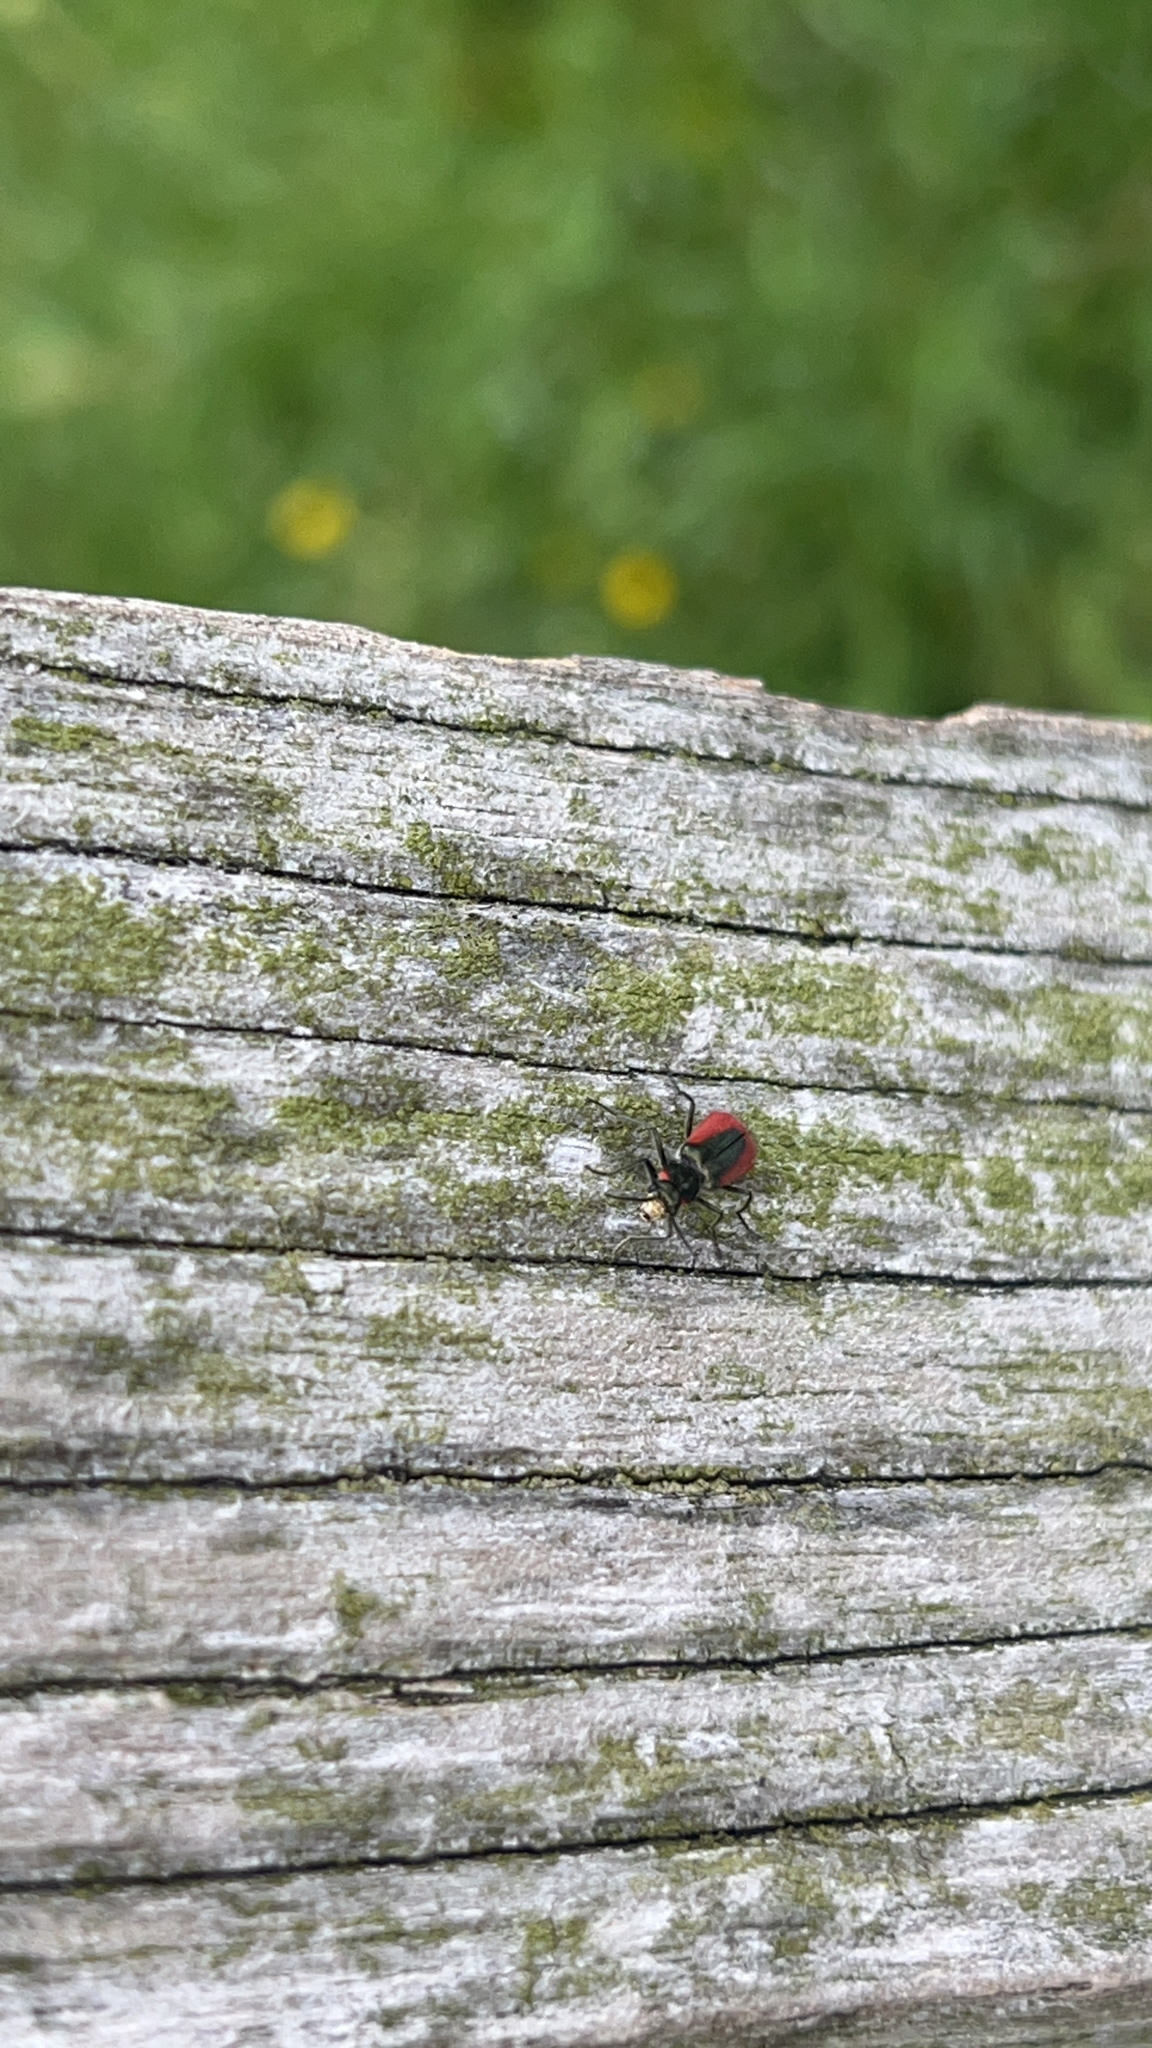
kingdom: Animalia
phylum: Arthropoda
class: Insecta
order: Coleoptera
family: Melyridae
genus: Malachius
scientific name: Malachius aeneus
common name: Scarlet malachite beetle
